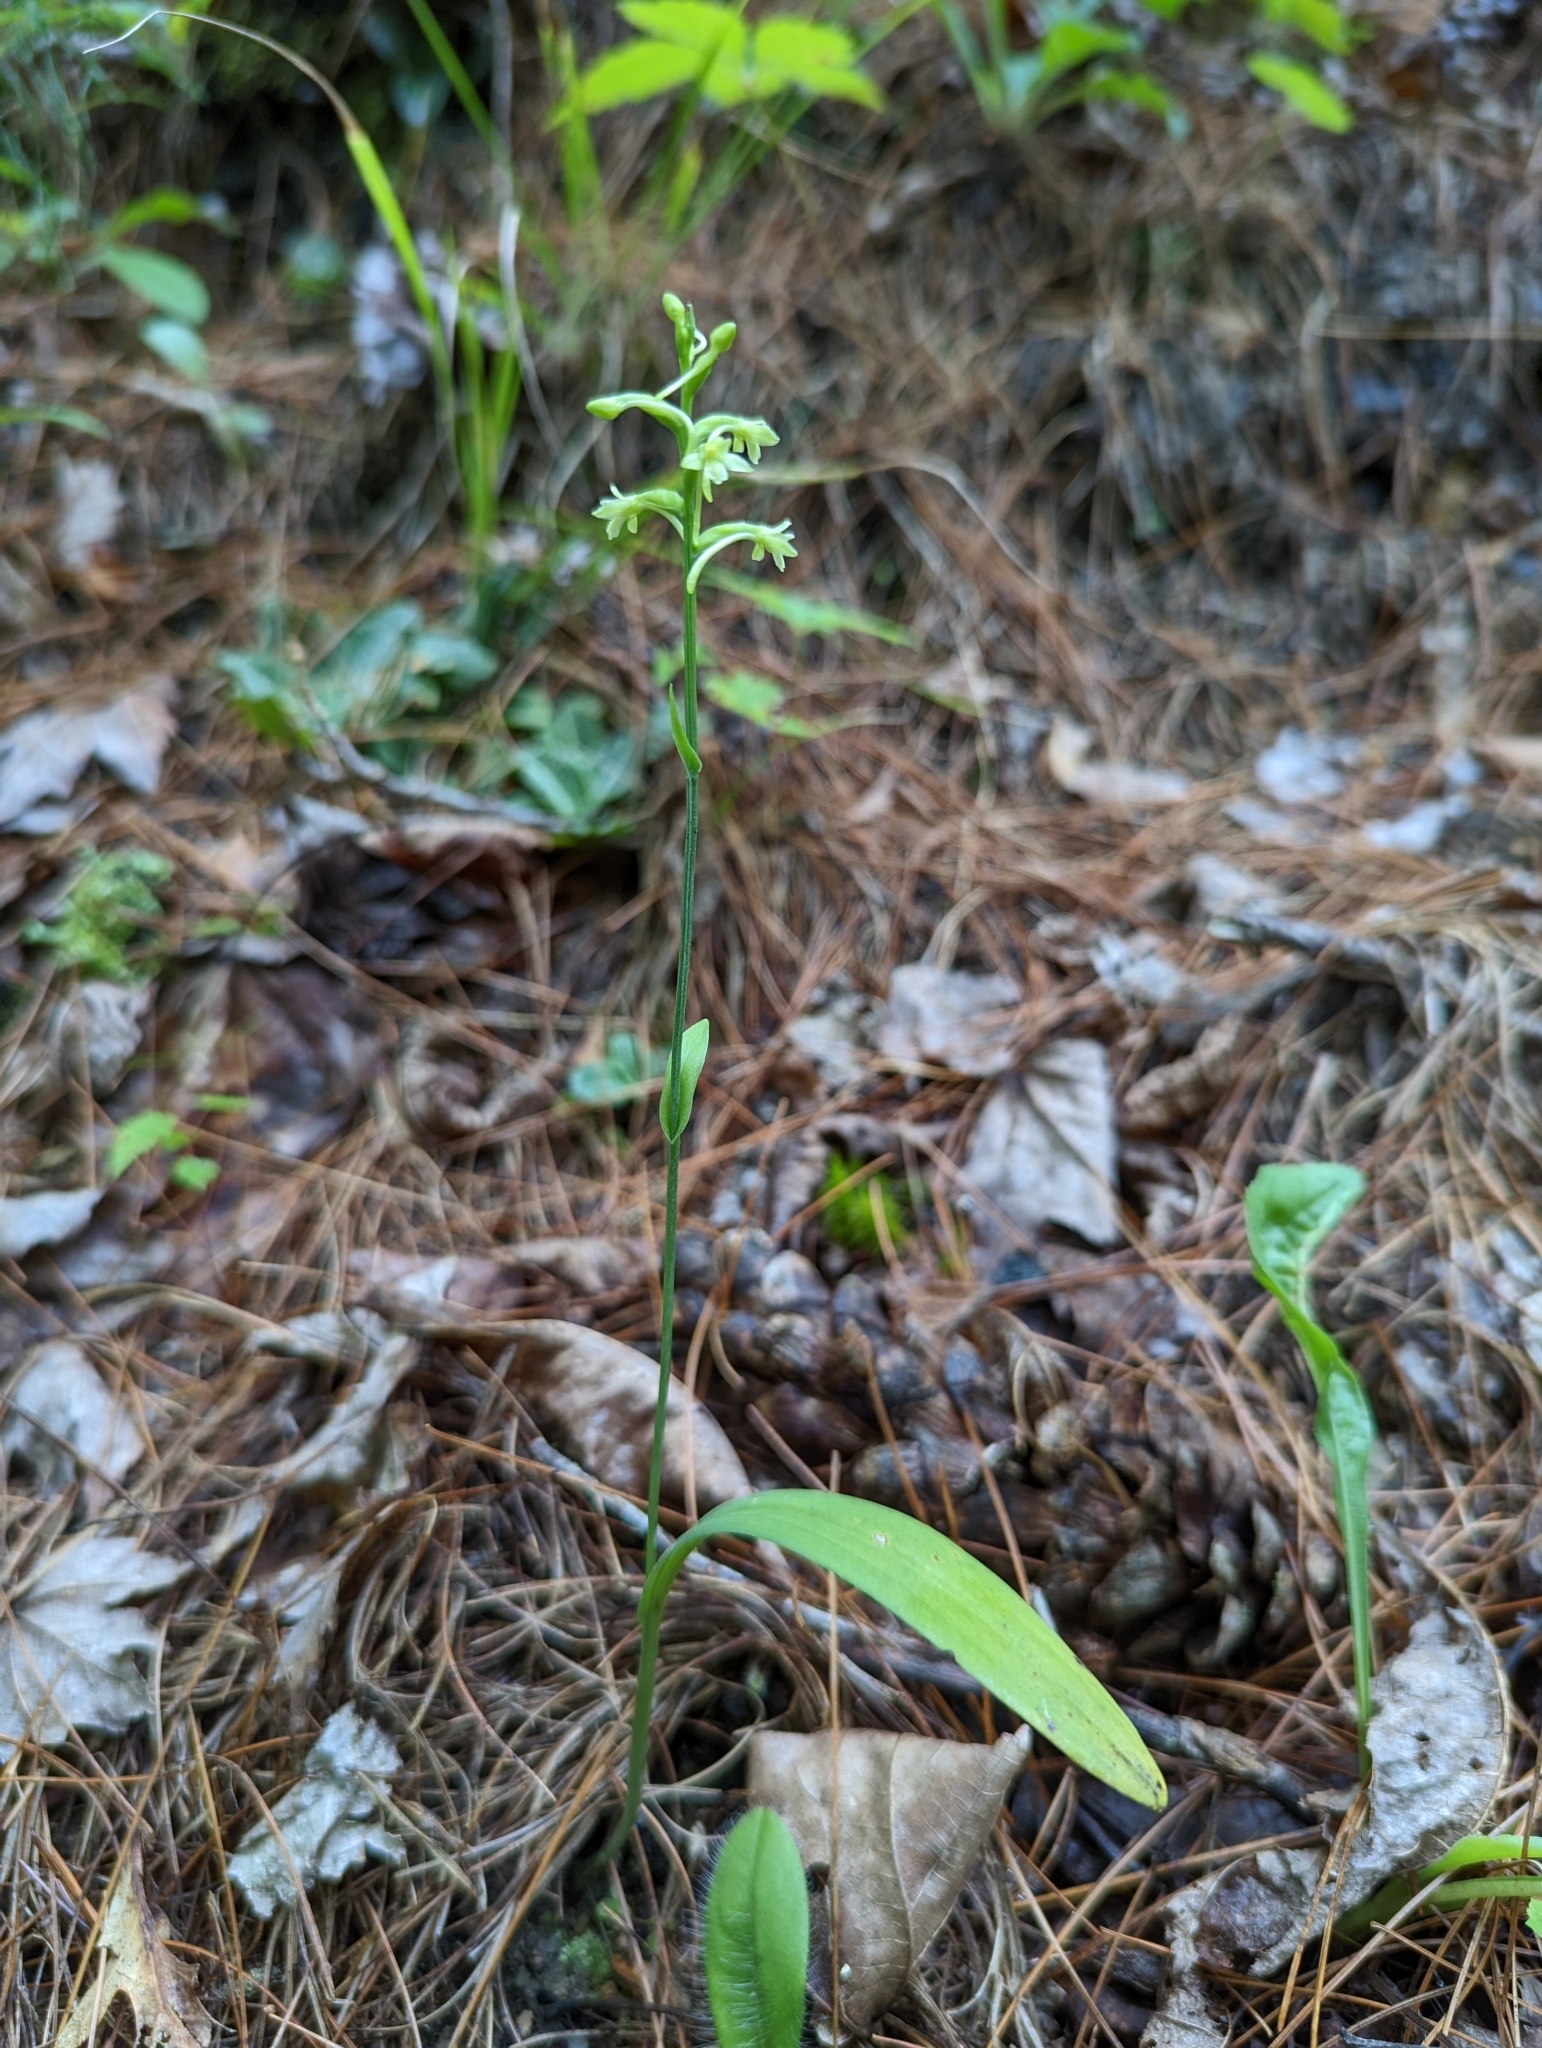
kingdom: Plantae
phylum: Tracheophyta
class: Liliopsida
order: Asparagales
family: Orchidaceae
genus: Platanthera
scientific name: Platanthera clavellata
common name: Club-spur orchid
